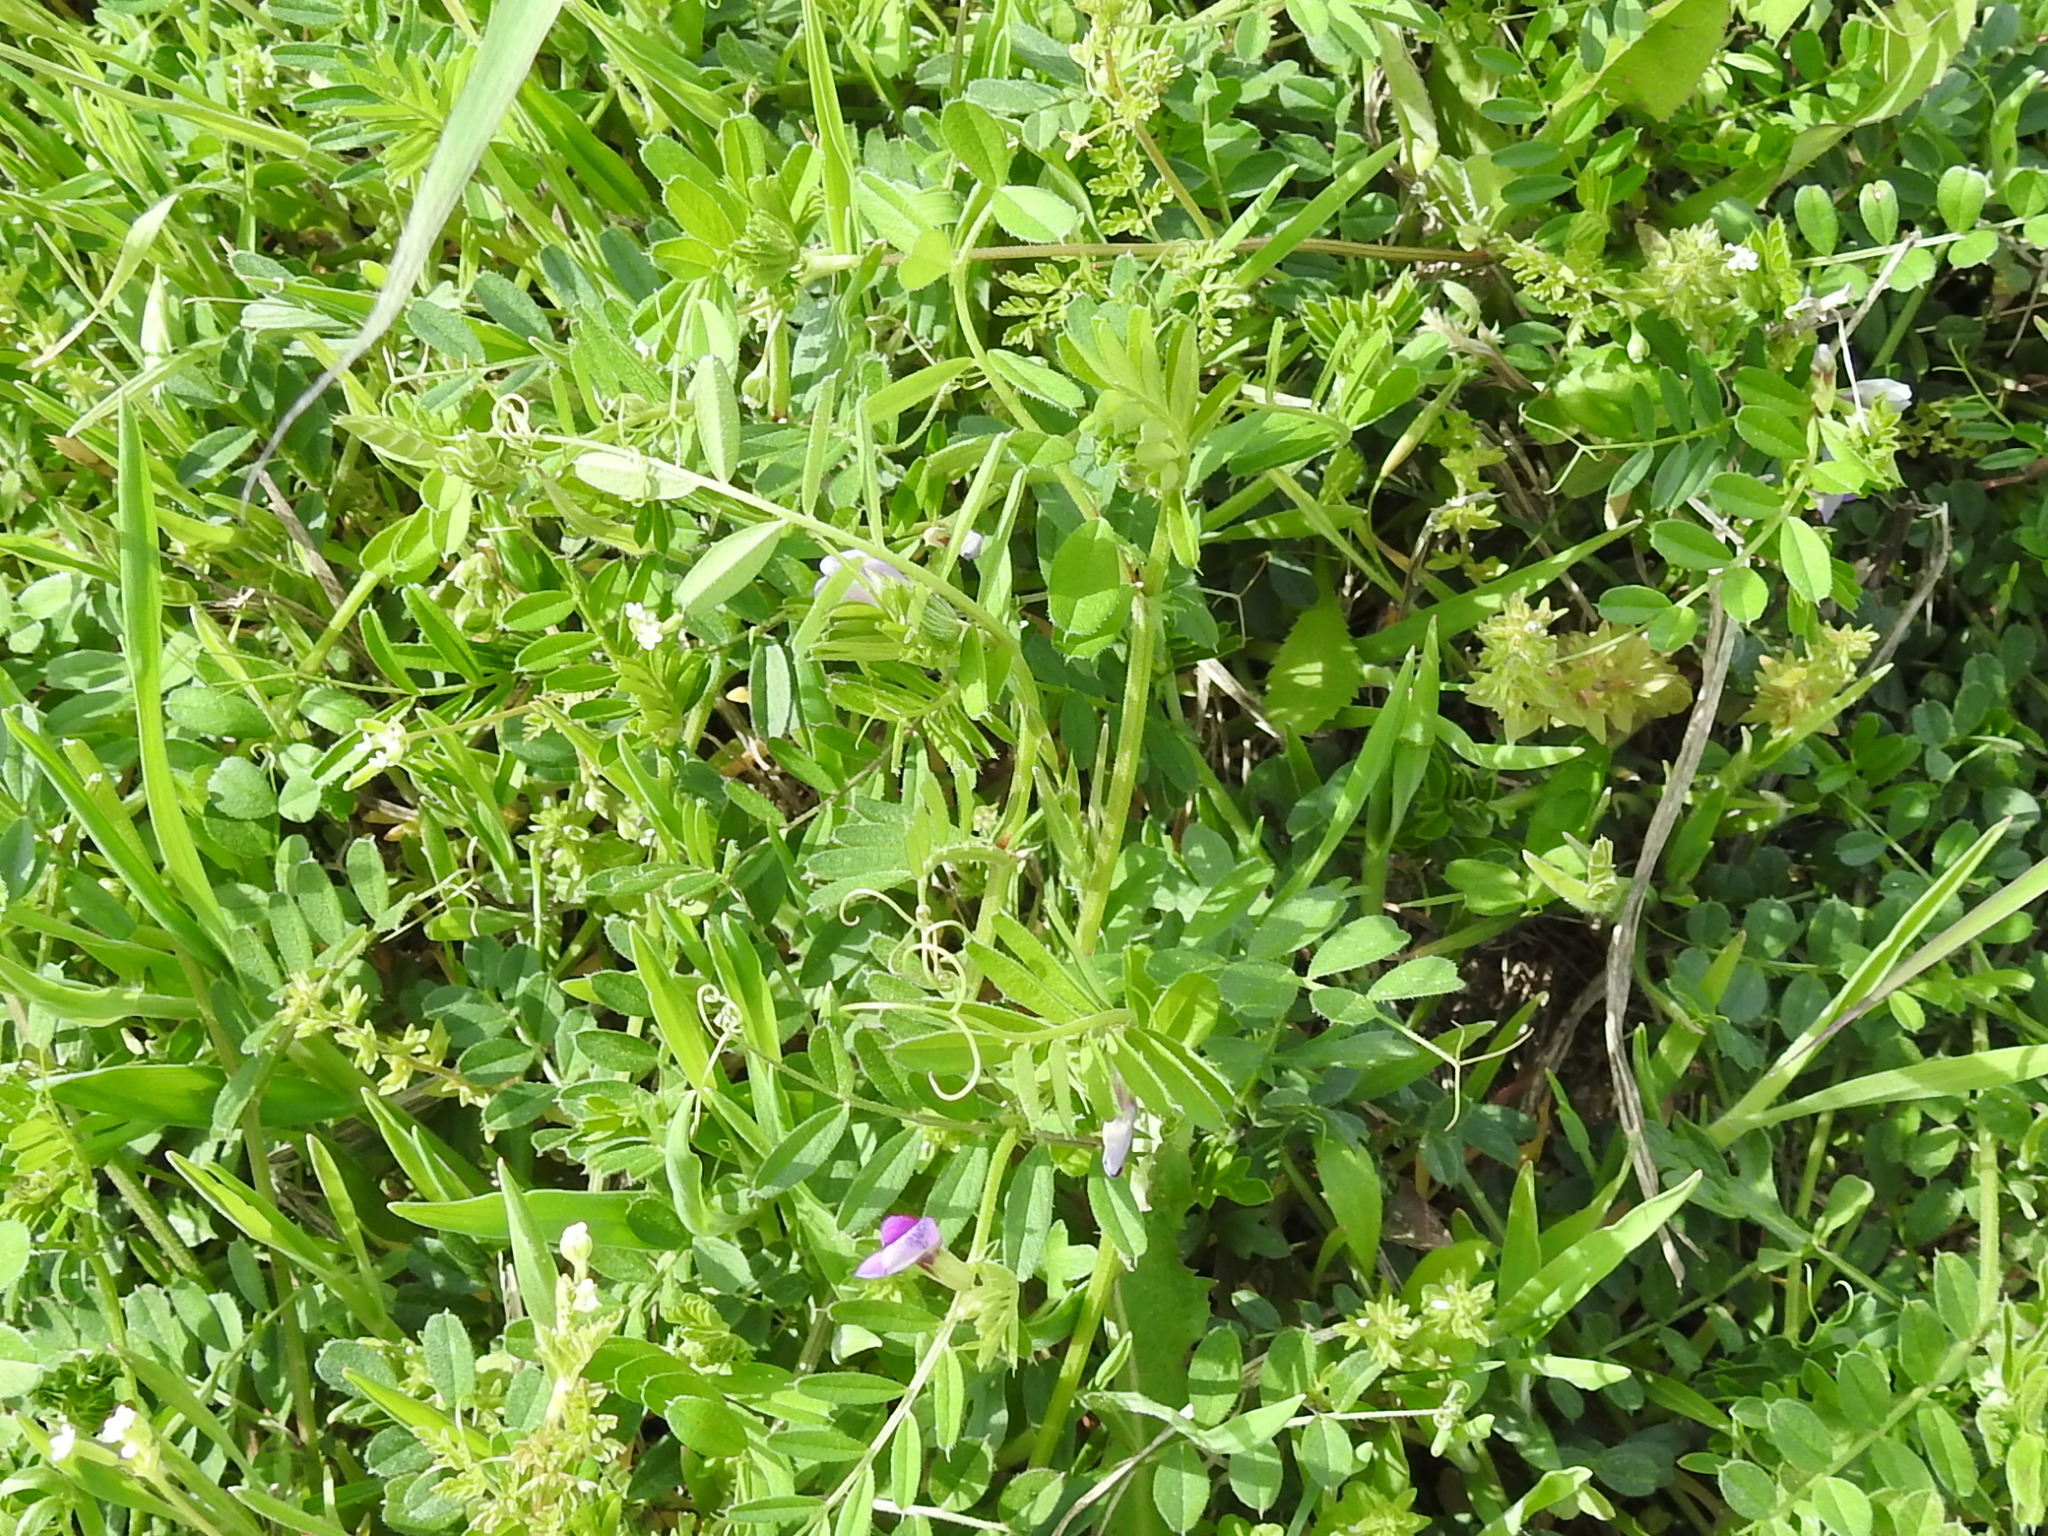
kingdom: Plantae
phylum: Tracheophyta
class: Magnoliopsida
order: Fabales
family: Fabaceae
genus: Vicia
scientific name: Vicia sativa
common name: Garden vetch
